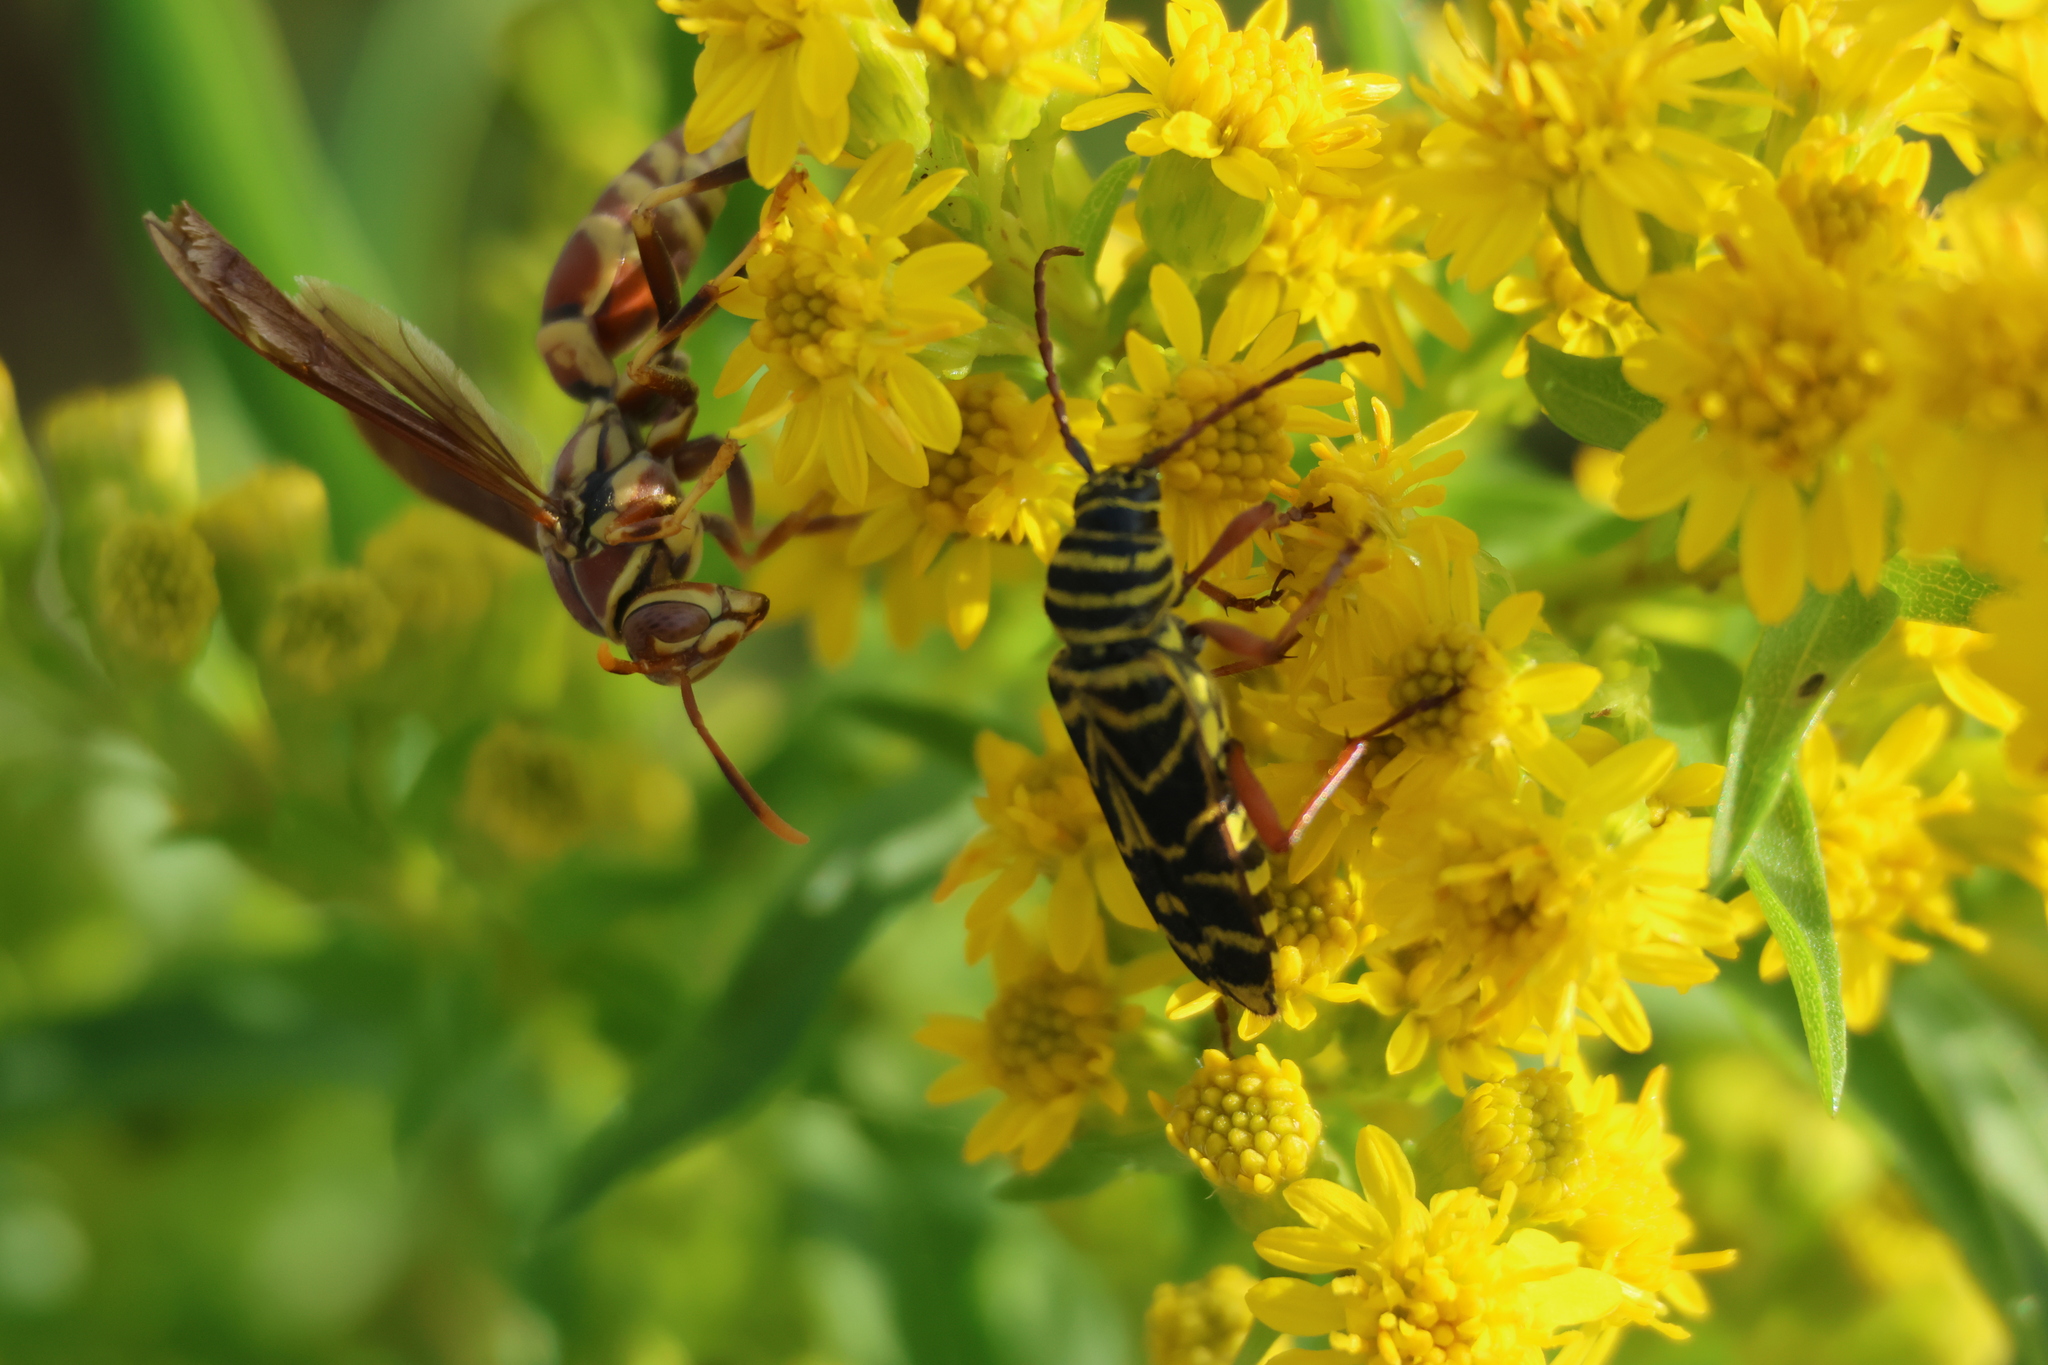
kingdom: Animalia
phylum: Arthropoda
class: Insecta
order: Coleoptera
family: Cerambycidae
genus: Megacyllene
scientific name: Megacyllene robiniae
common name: Locust borer
